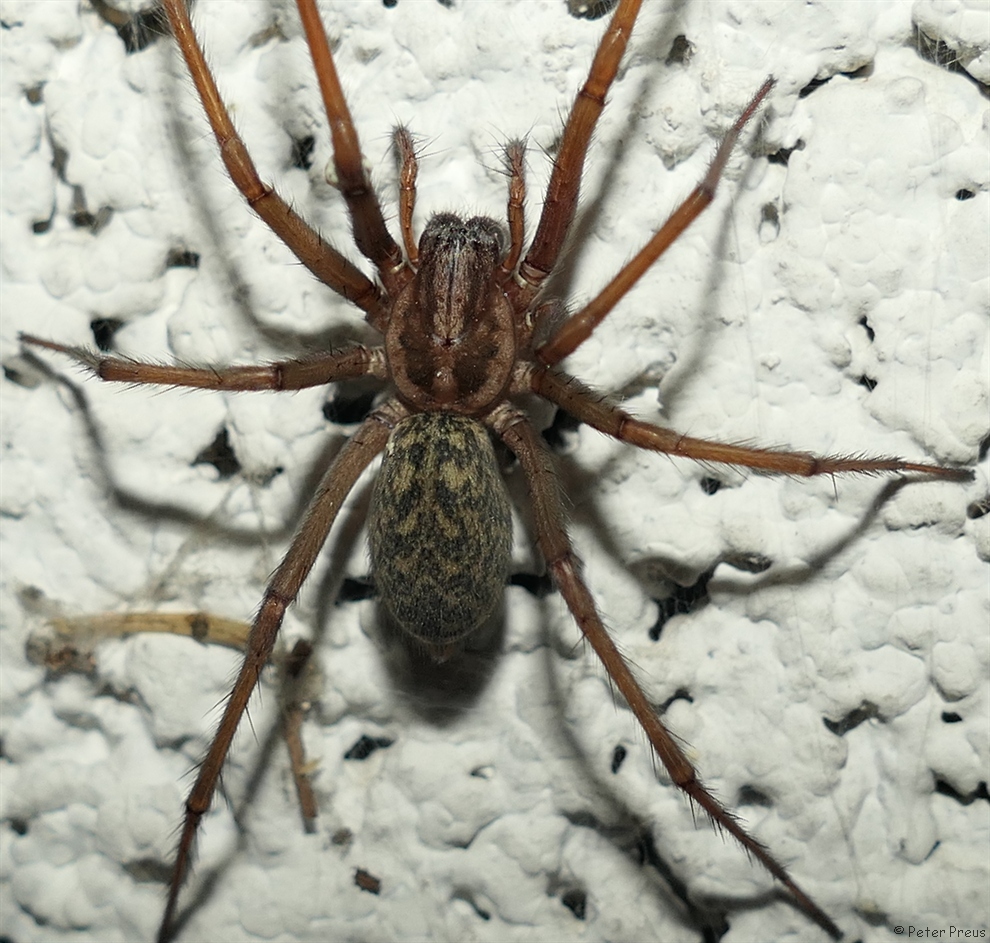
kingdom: Animalia
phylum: Arthropoda
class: Arachnida
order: Araneae
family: Agelenidae
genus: Eratigena
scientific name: Eratigena atrica
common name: Giant house spider
